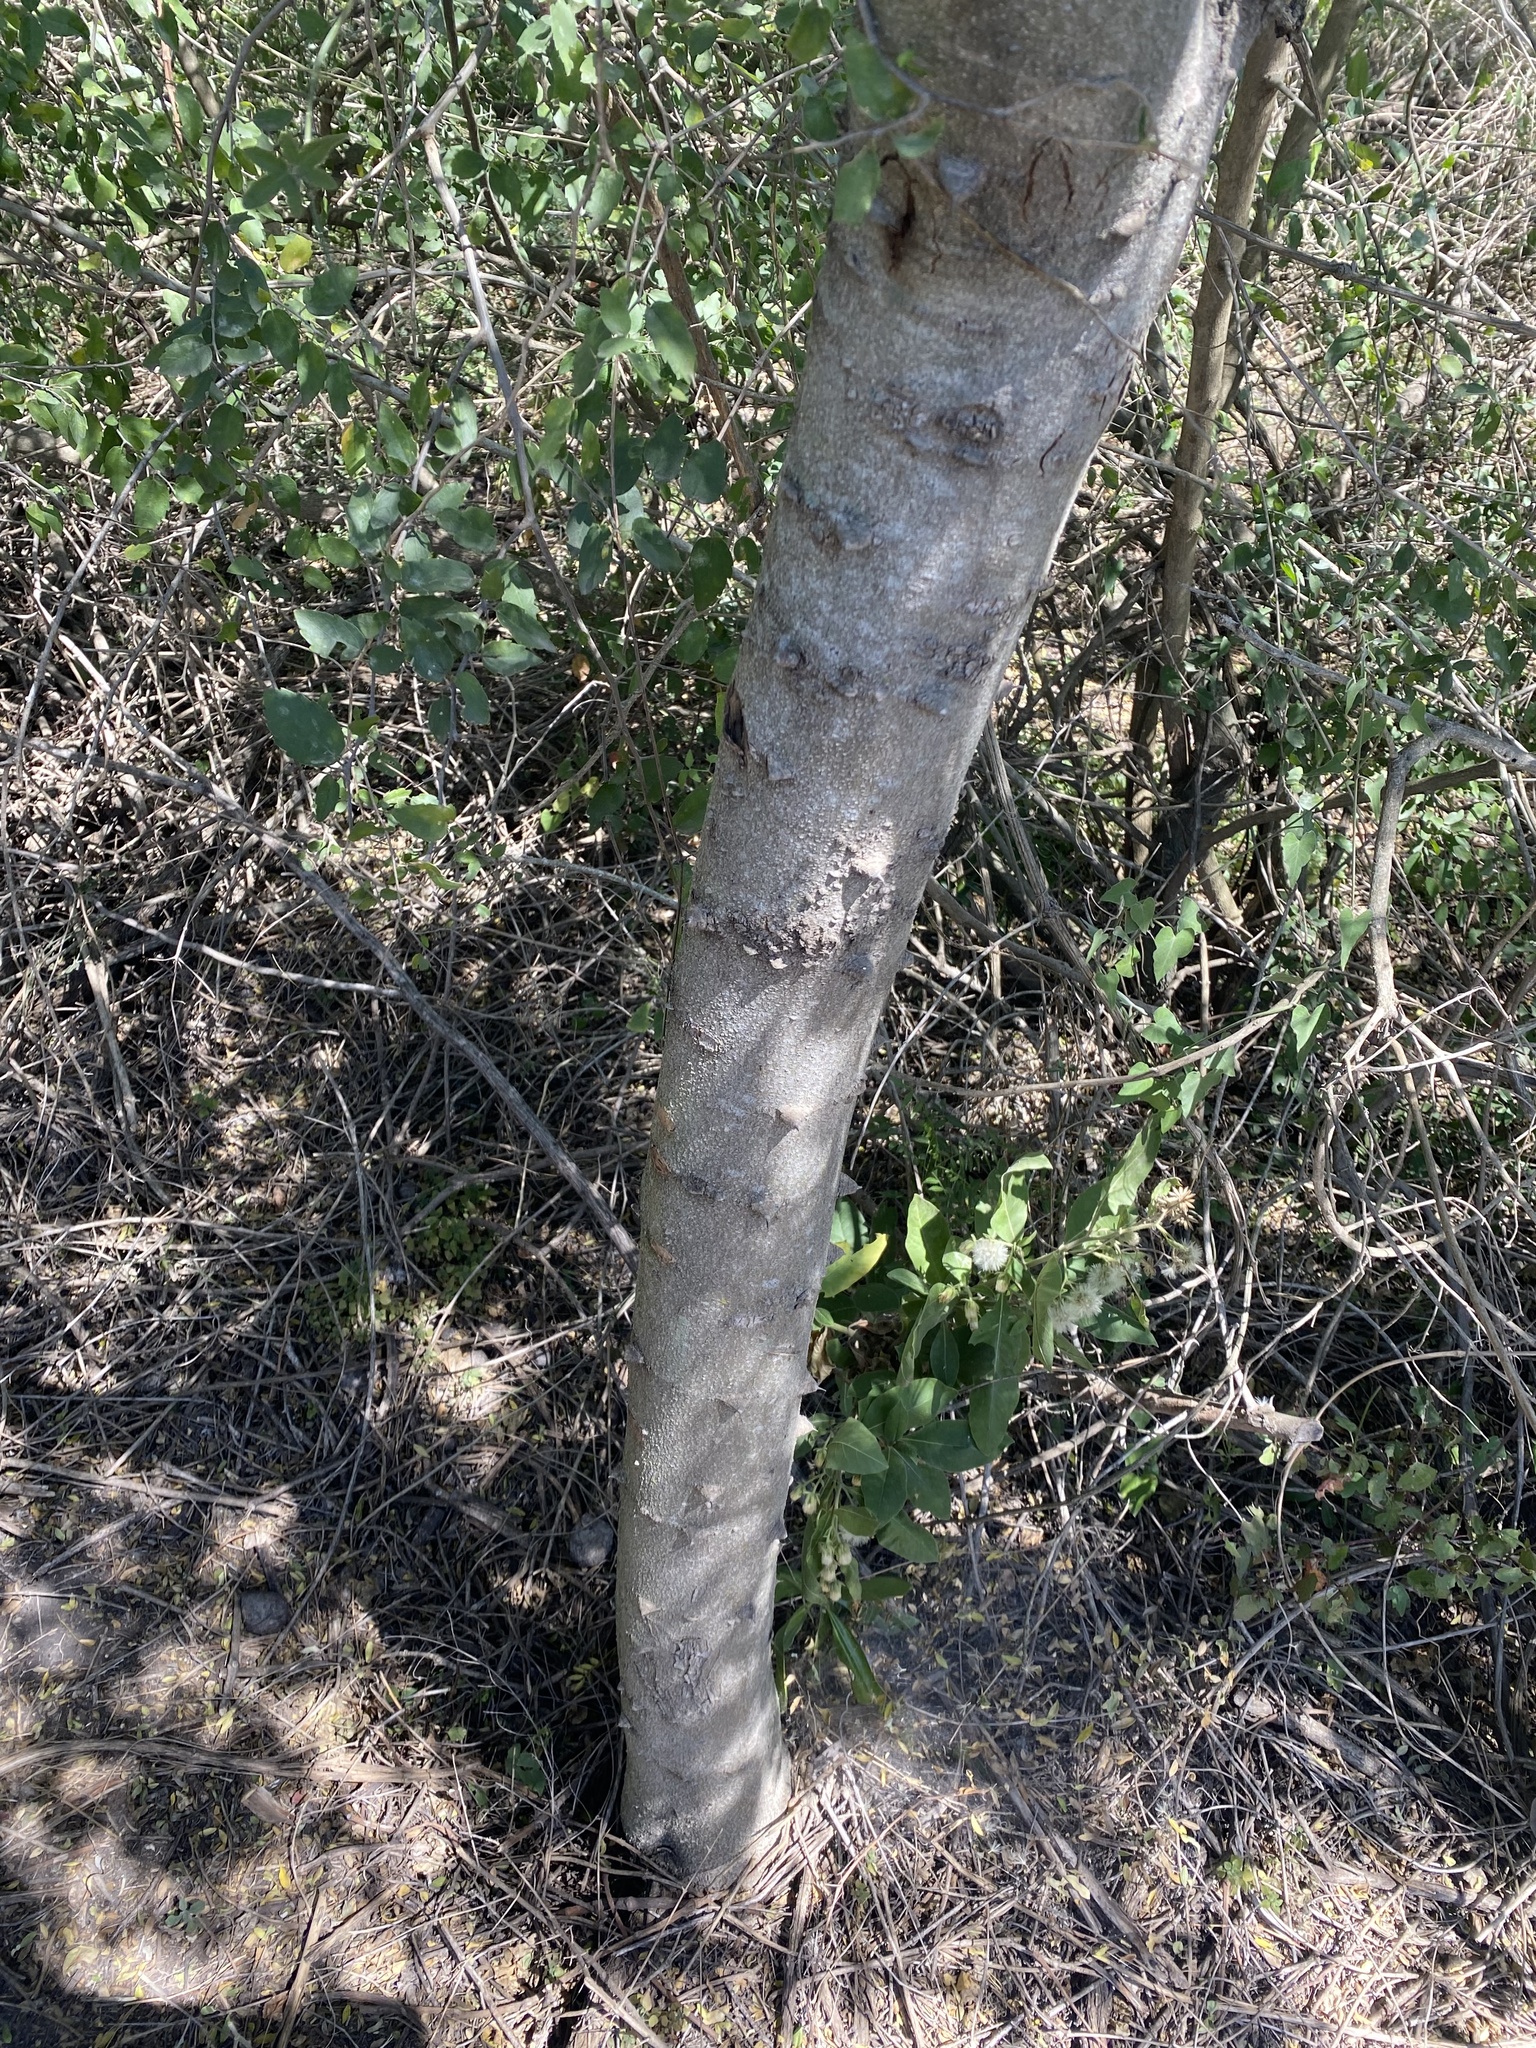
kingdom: Plantae
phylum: Tracheophyta
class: Magnoliopsida
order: Sapindales
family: Rutaceae
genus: Zanthoxylum
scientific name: Zanthoxylum fagara
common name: Lime prickly-ash
